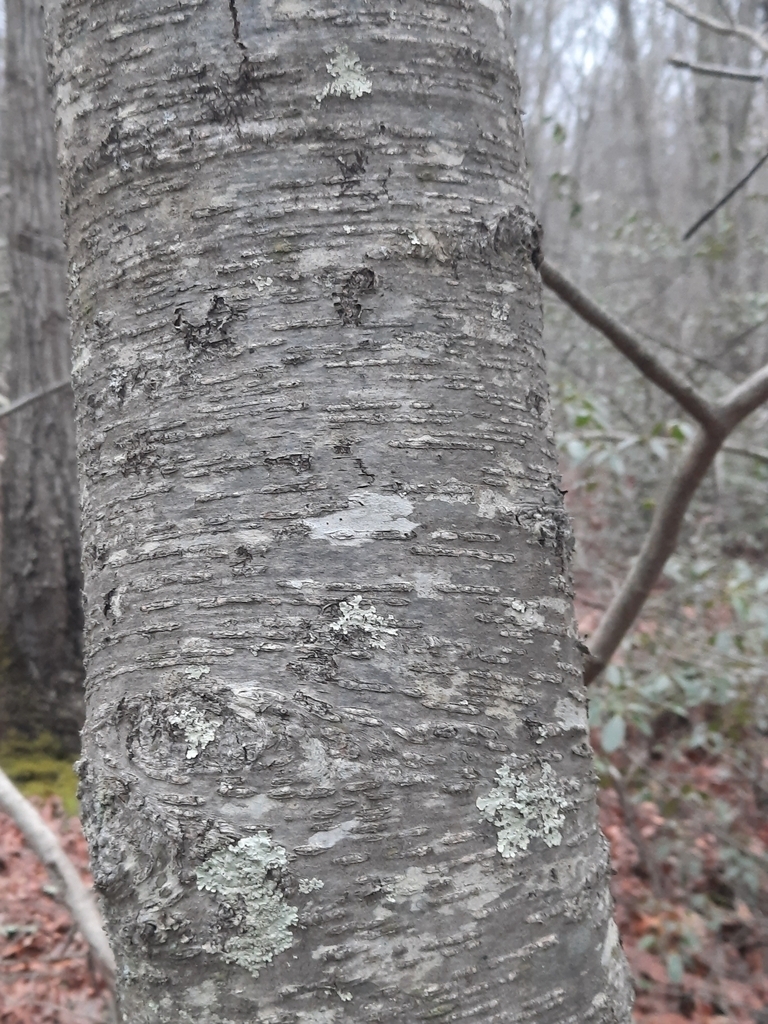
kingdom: Plantae
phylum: Tracheophyta
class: Magnoliopsida
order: Fagales
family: Betulaceae
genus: Betula
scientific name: Betula lenta
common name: Black birch
